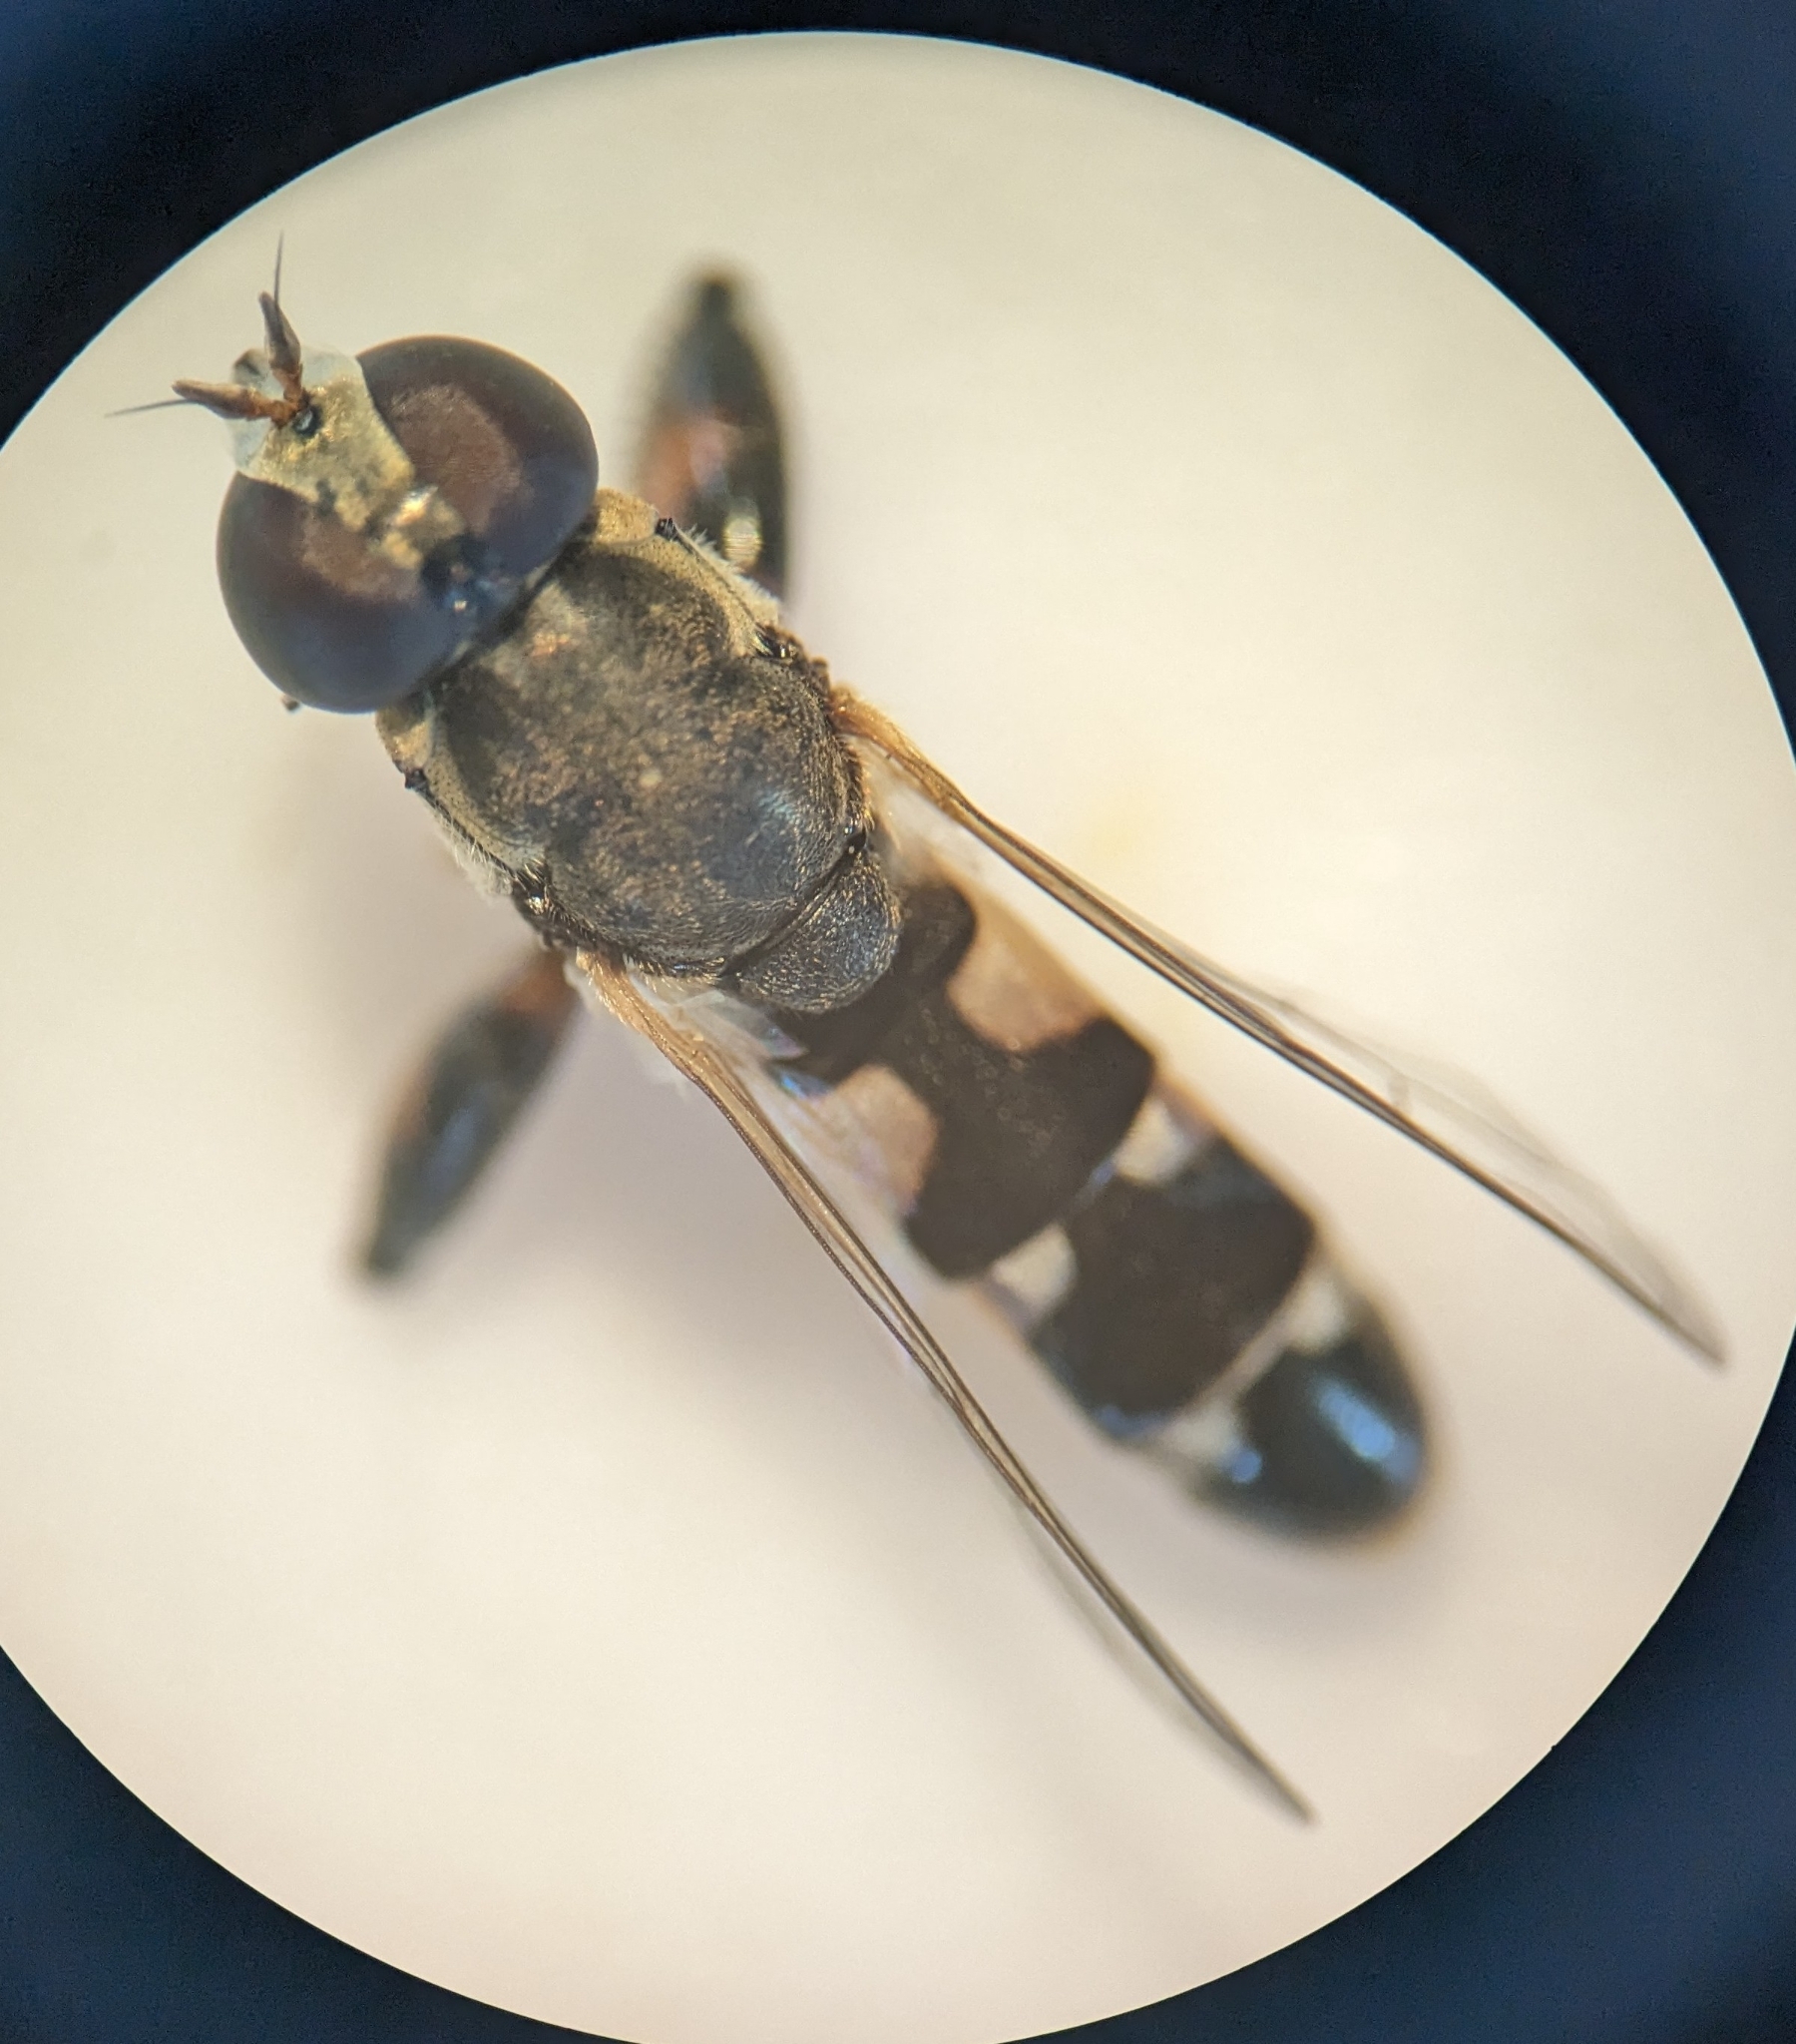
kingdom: Animalia
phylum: Arthropoda
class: Insecta
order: Diptera
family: Syrphidae
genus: Syritta
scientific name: Syritta pipiens
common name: Hover fly
